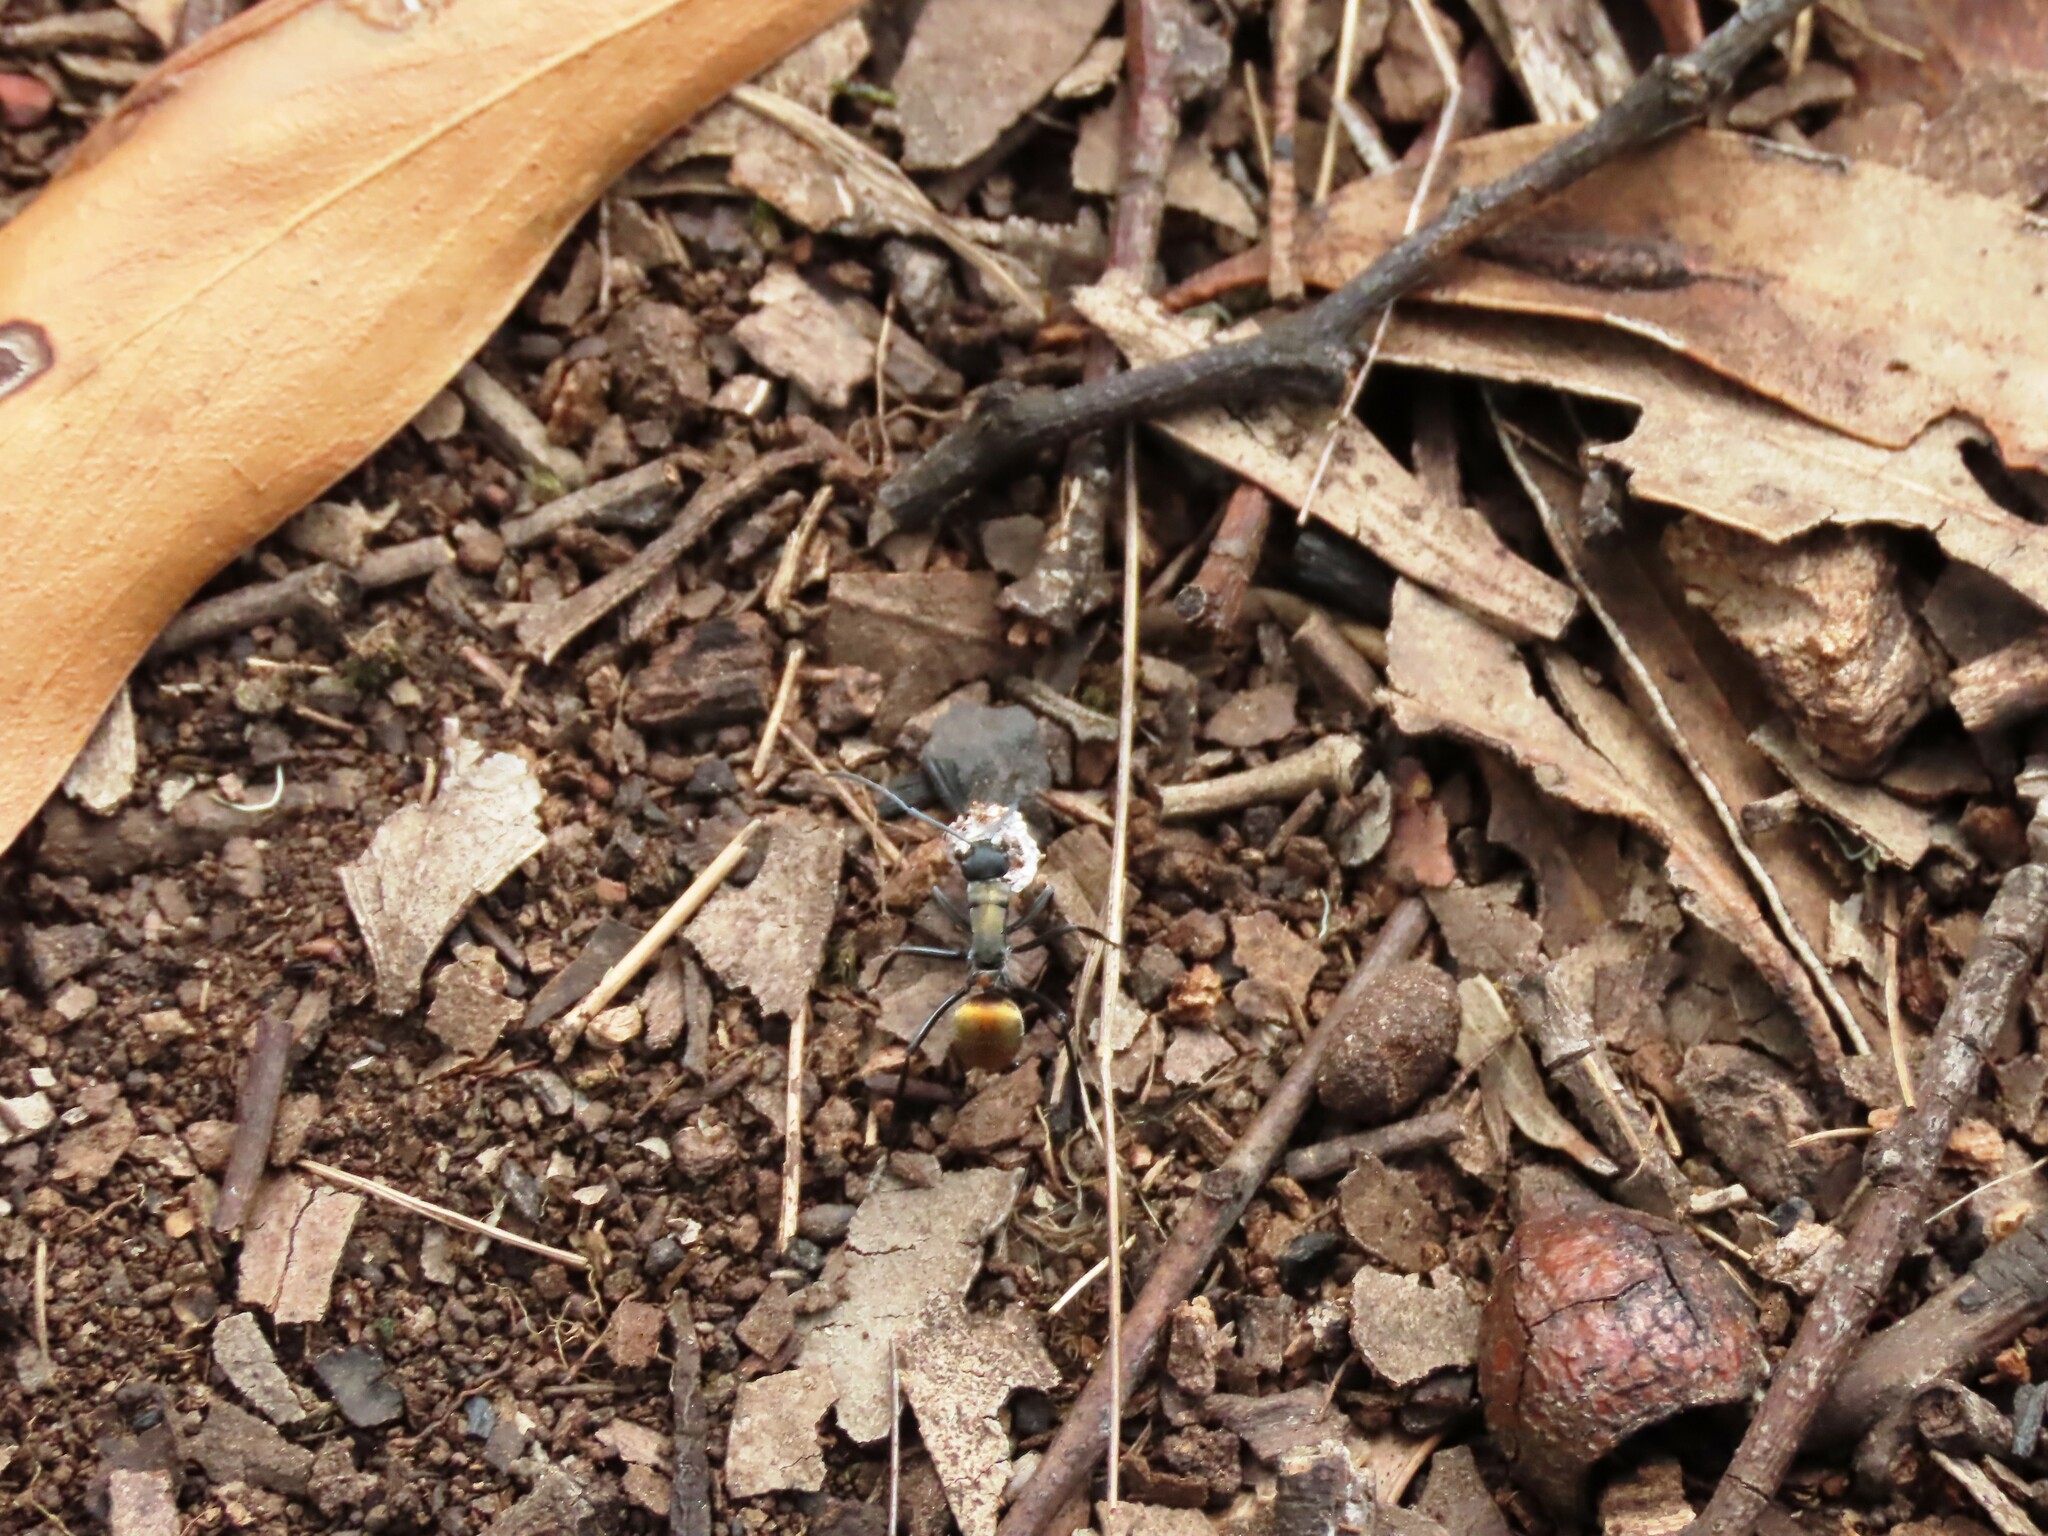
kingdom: Animalia
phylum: Arthropoda
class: Insecta
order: Hymenoptera
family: Formicidae
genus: Polyrhachis
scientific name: Polyrhachis ammon
